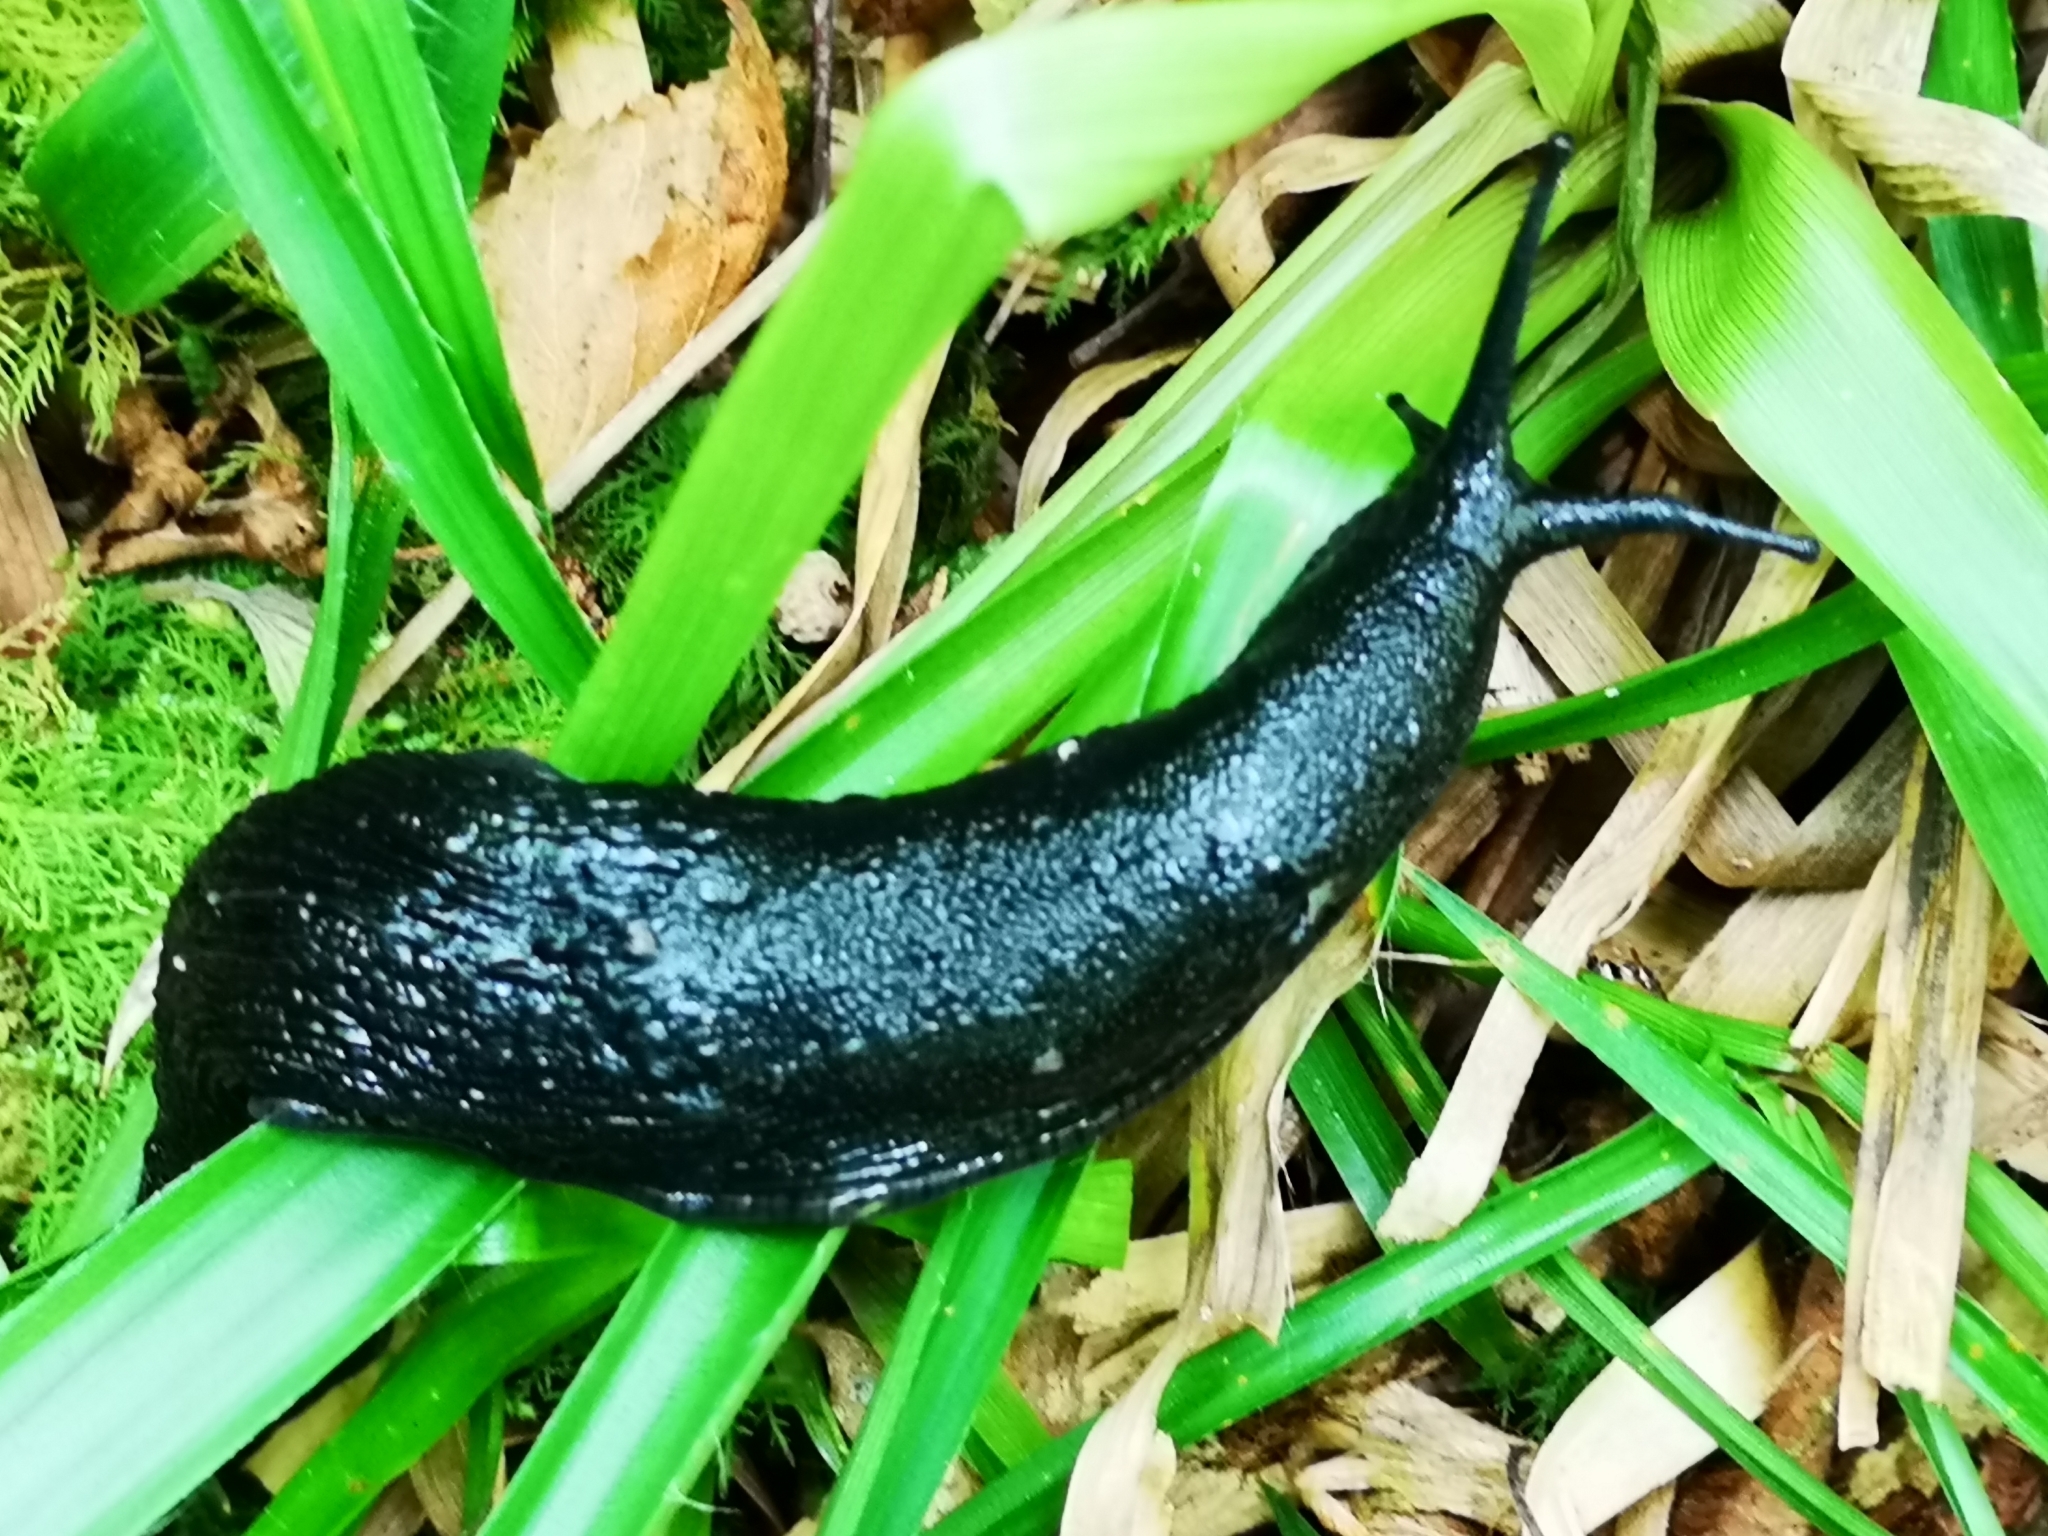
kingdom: Animalia
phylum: Mollusca
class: Gastropoda
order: Stylommatophora
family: Arionidae
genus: Arion
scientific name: Arion ater
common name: Black arion
